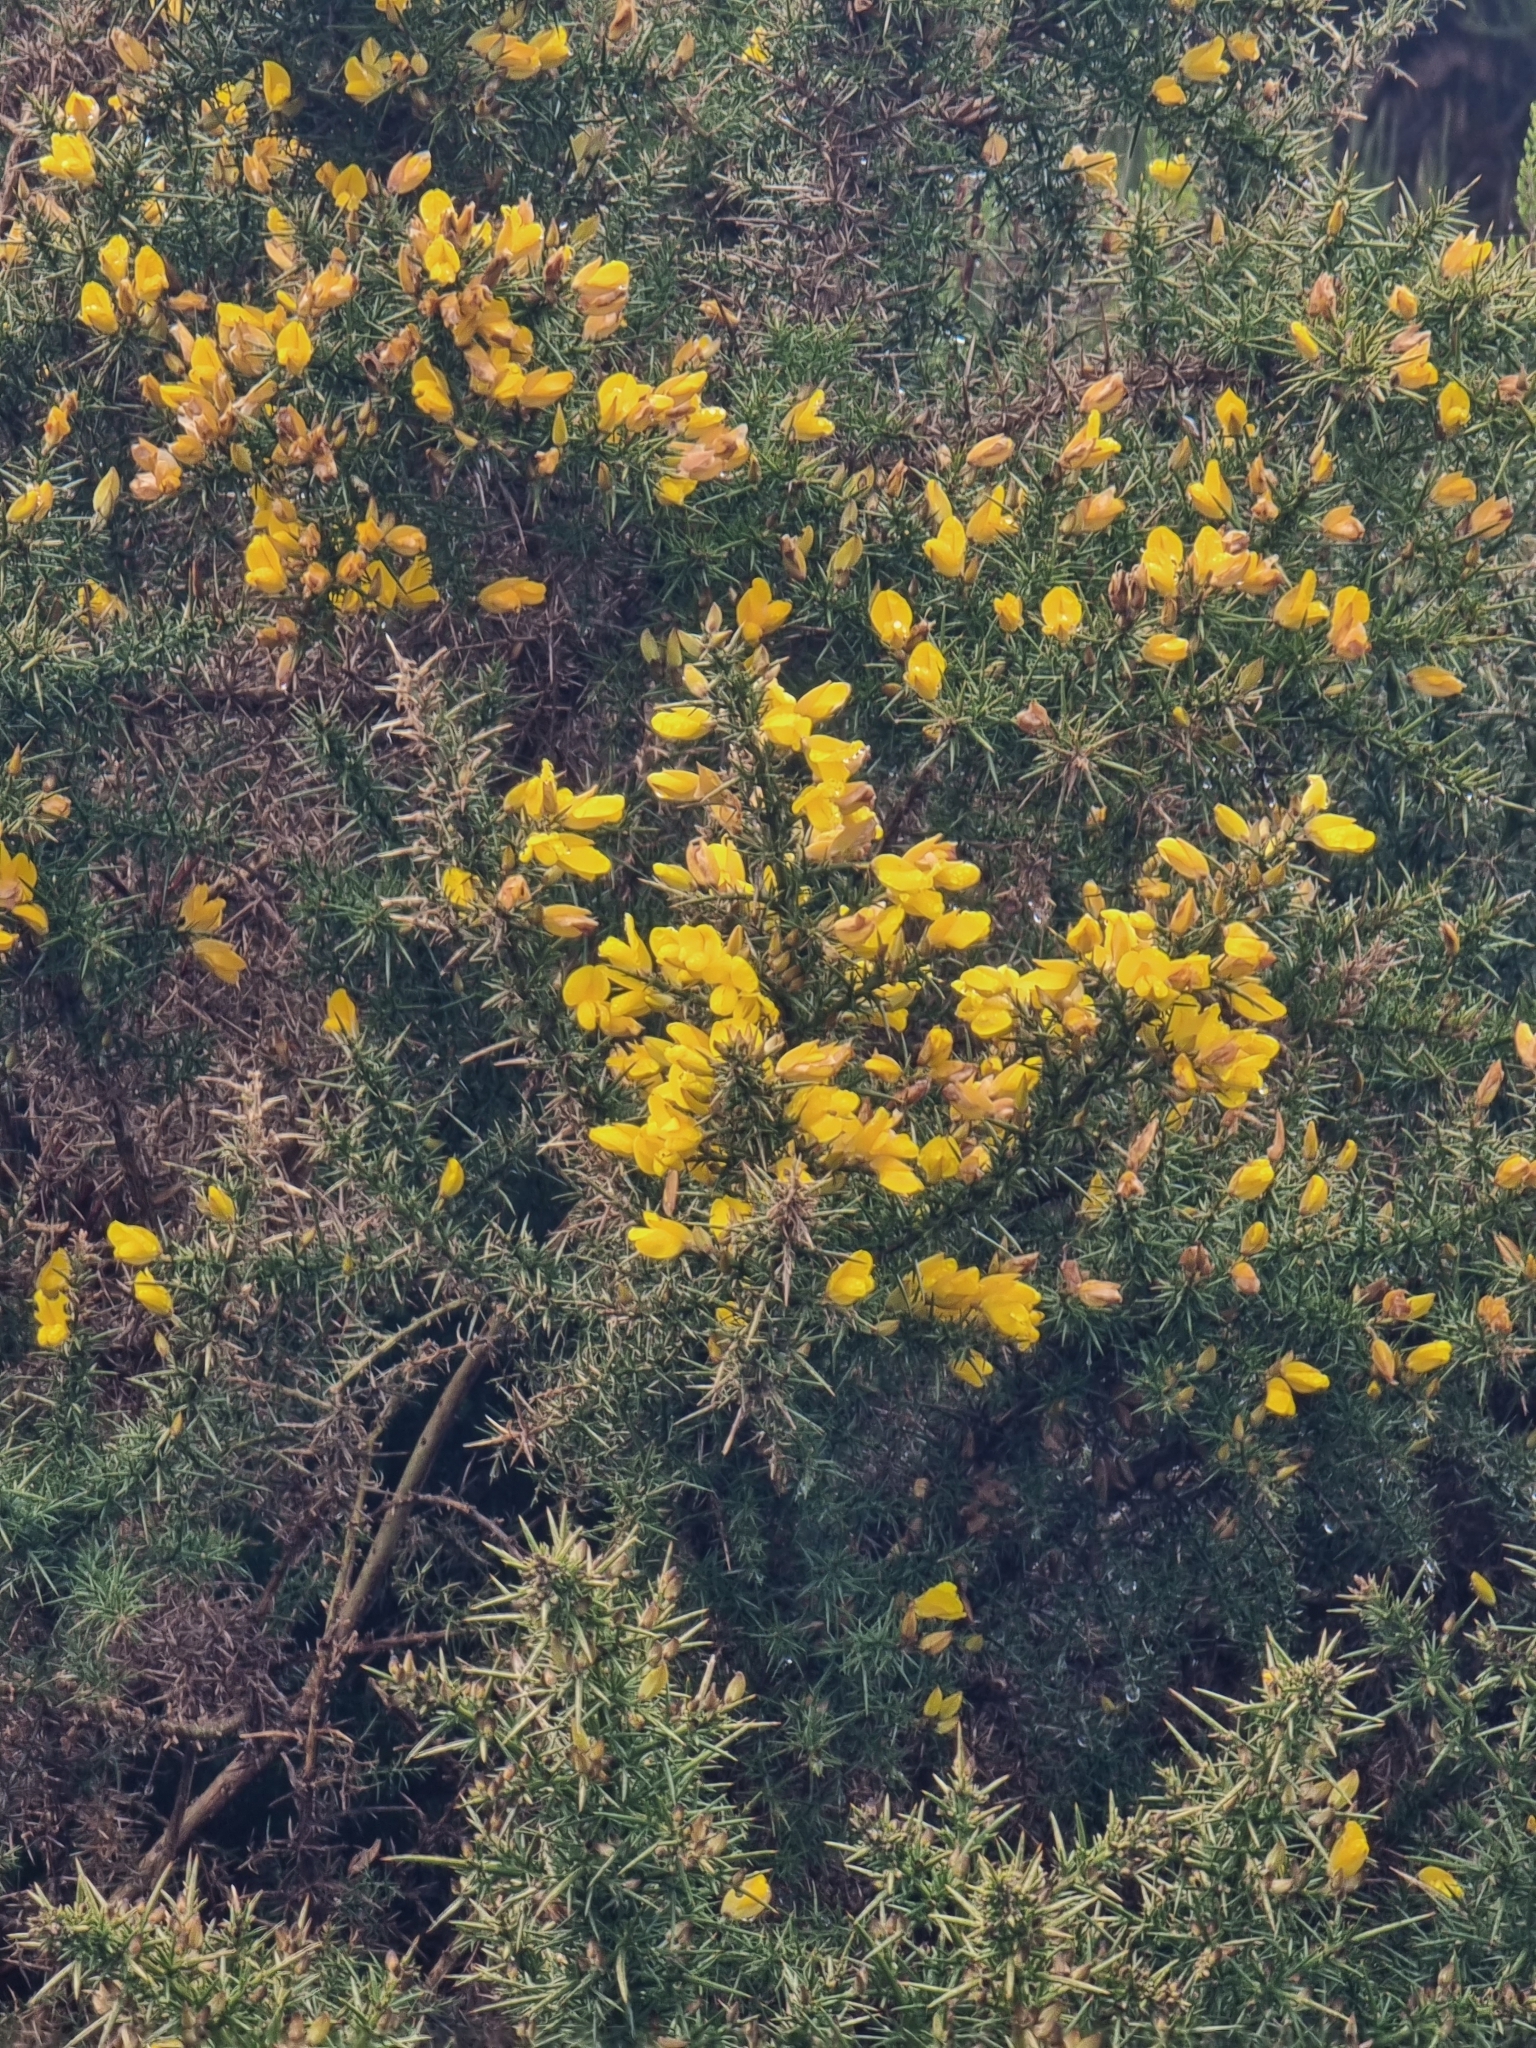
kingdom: Plantae
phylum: Tracheophyta
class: Magnoliopsida
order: Fabales
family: Fabaceae
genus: Ulex
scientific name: Ulex europaeus
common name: Common gorse
